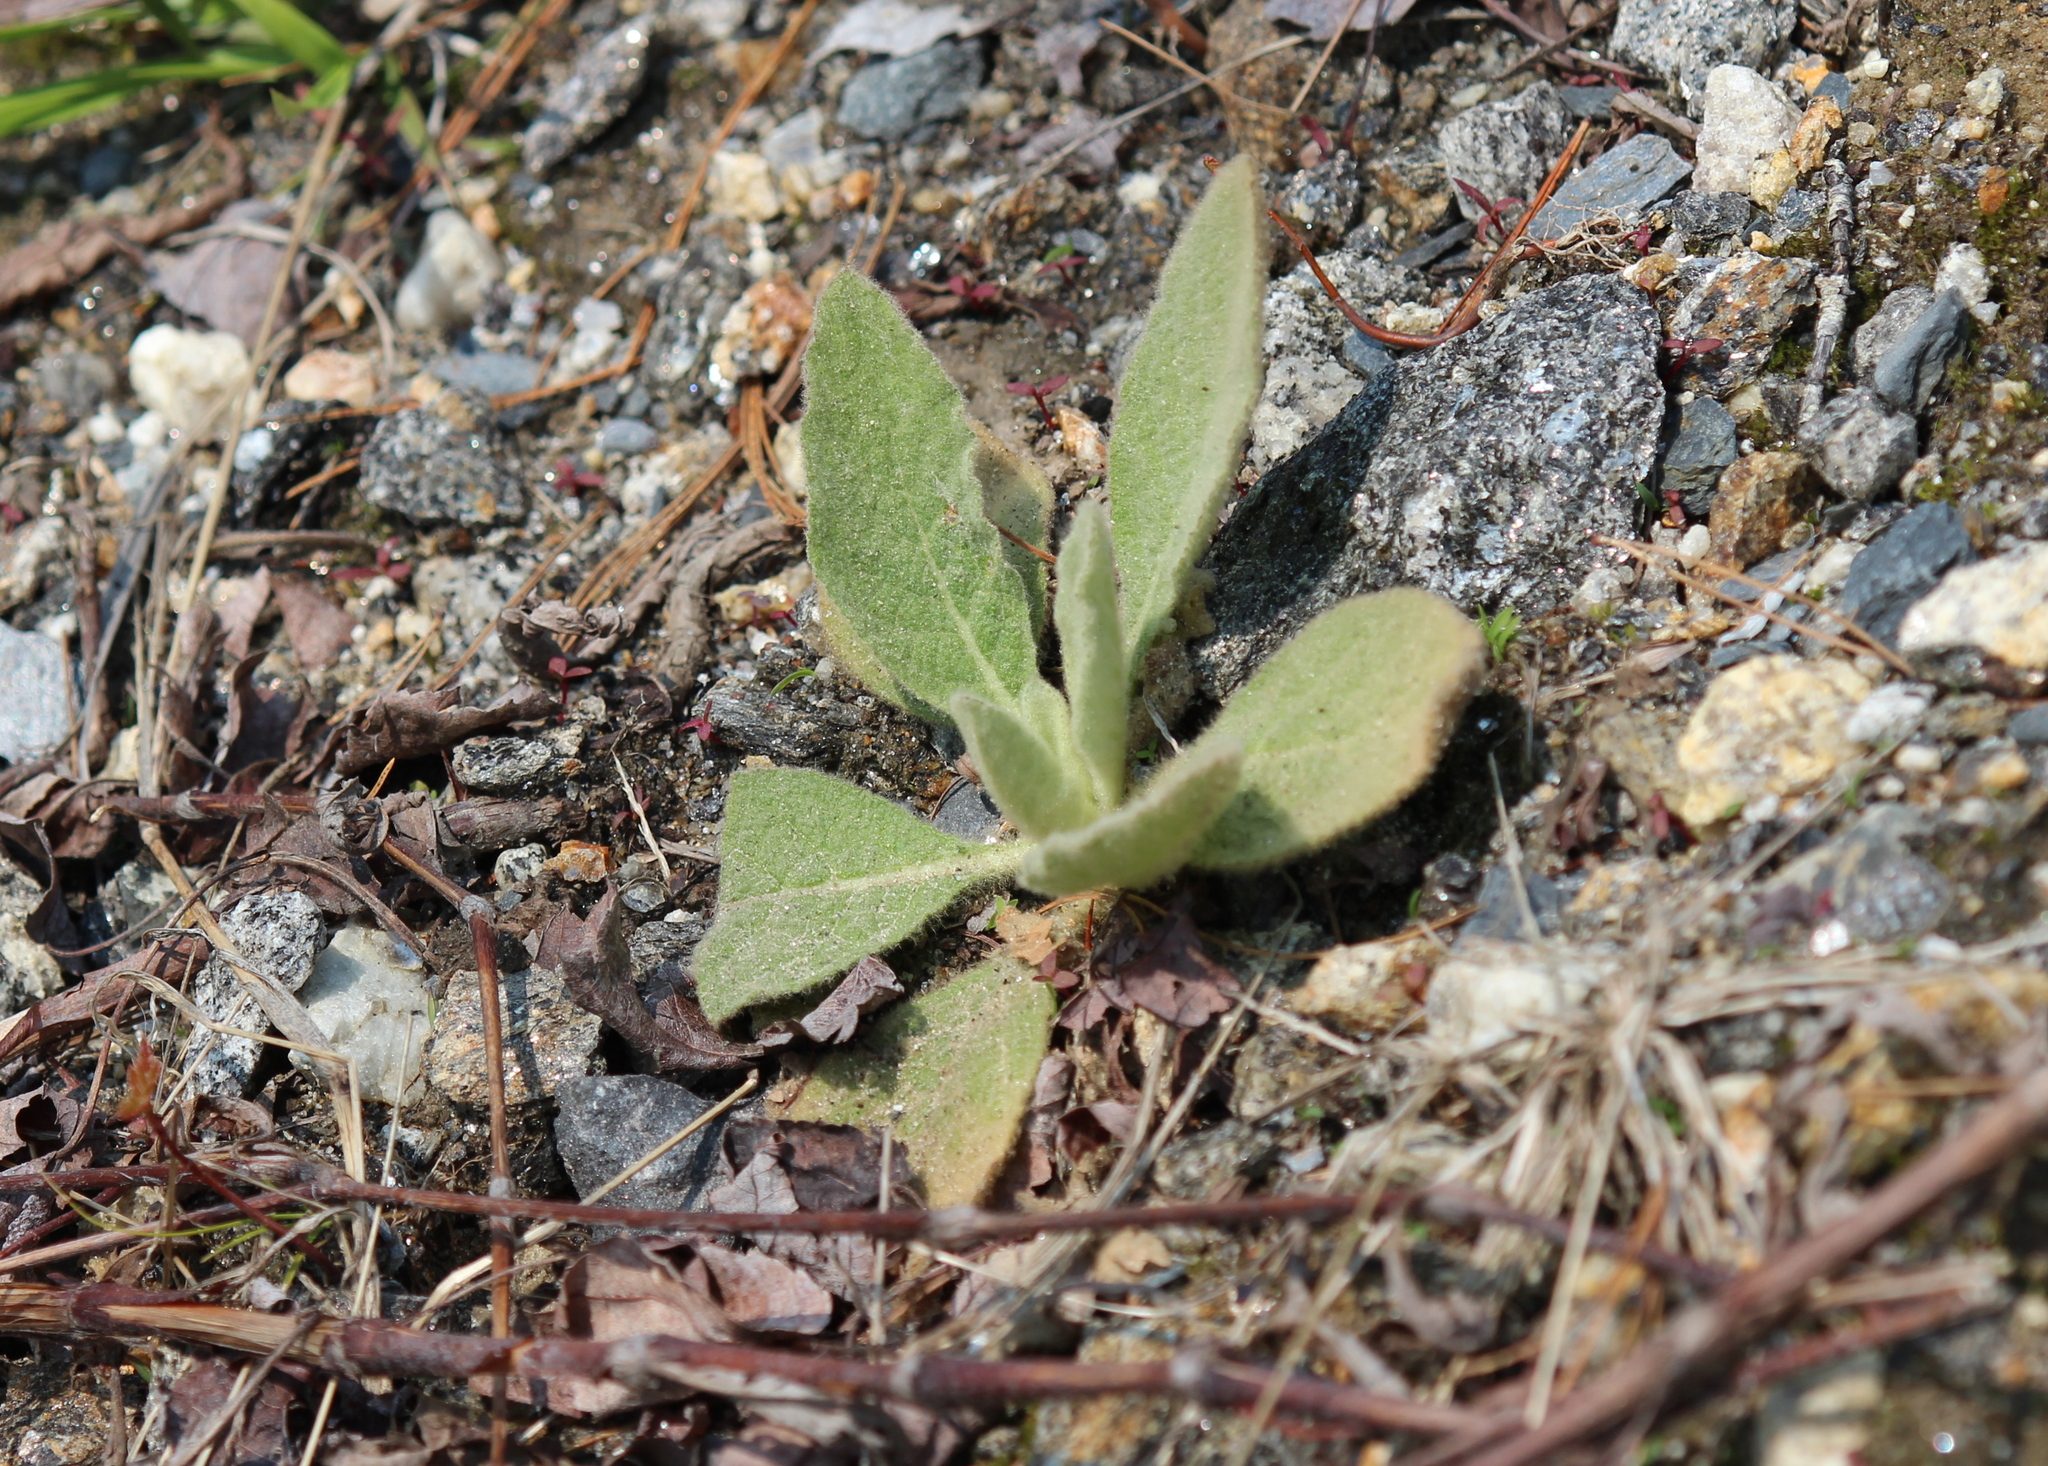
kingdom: Plantae
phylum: Tracheophyta
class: Magnoliopsida
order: Lamiales
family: Scrophulariaceae
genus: Verbascum
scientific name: Verbascum thapsus
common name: Common mullein
